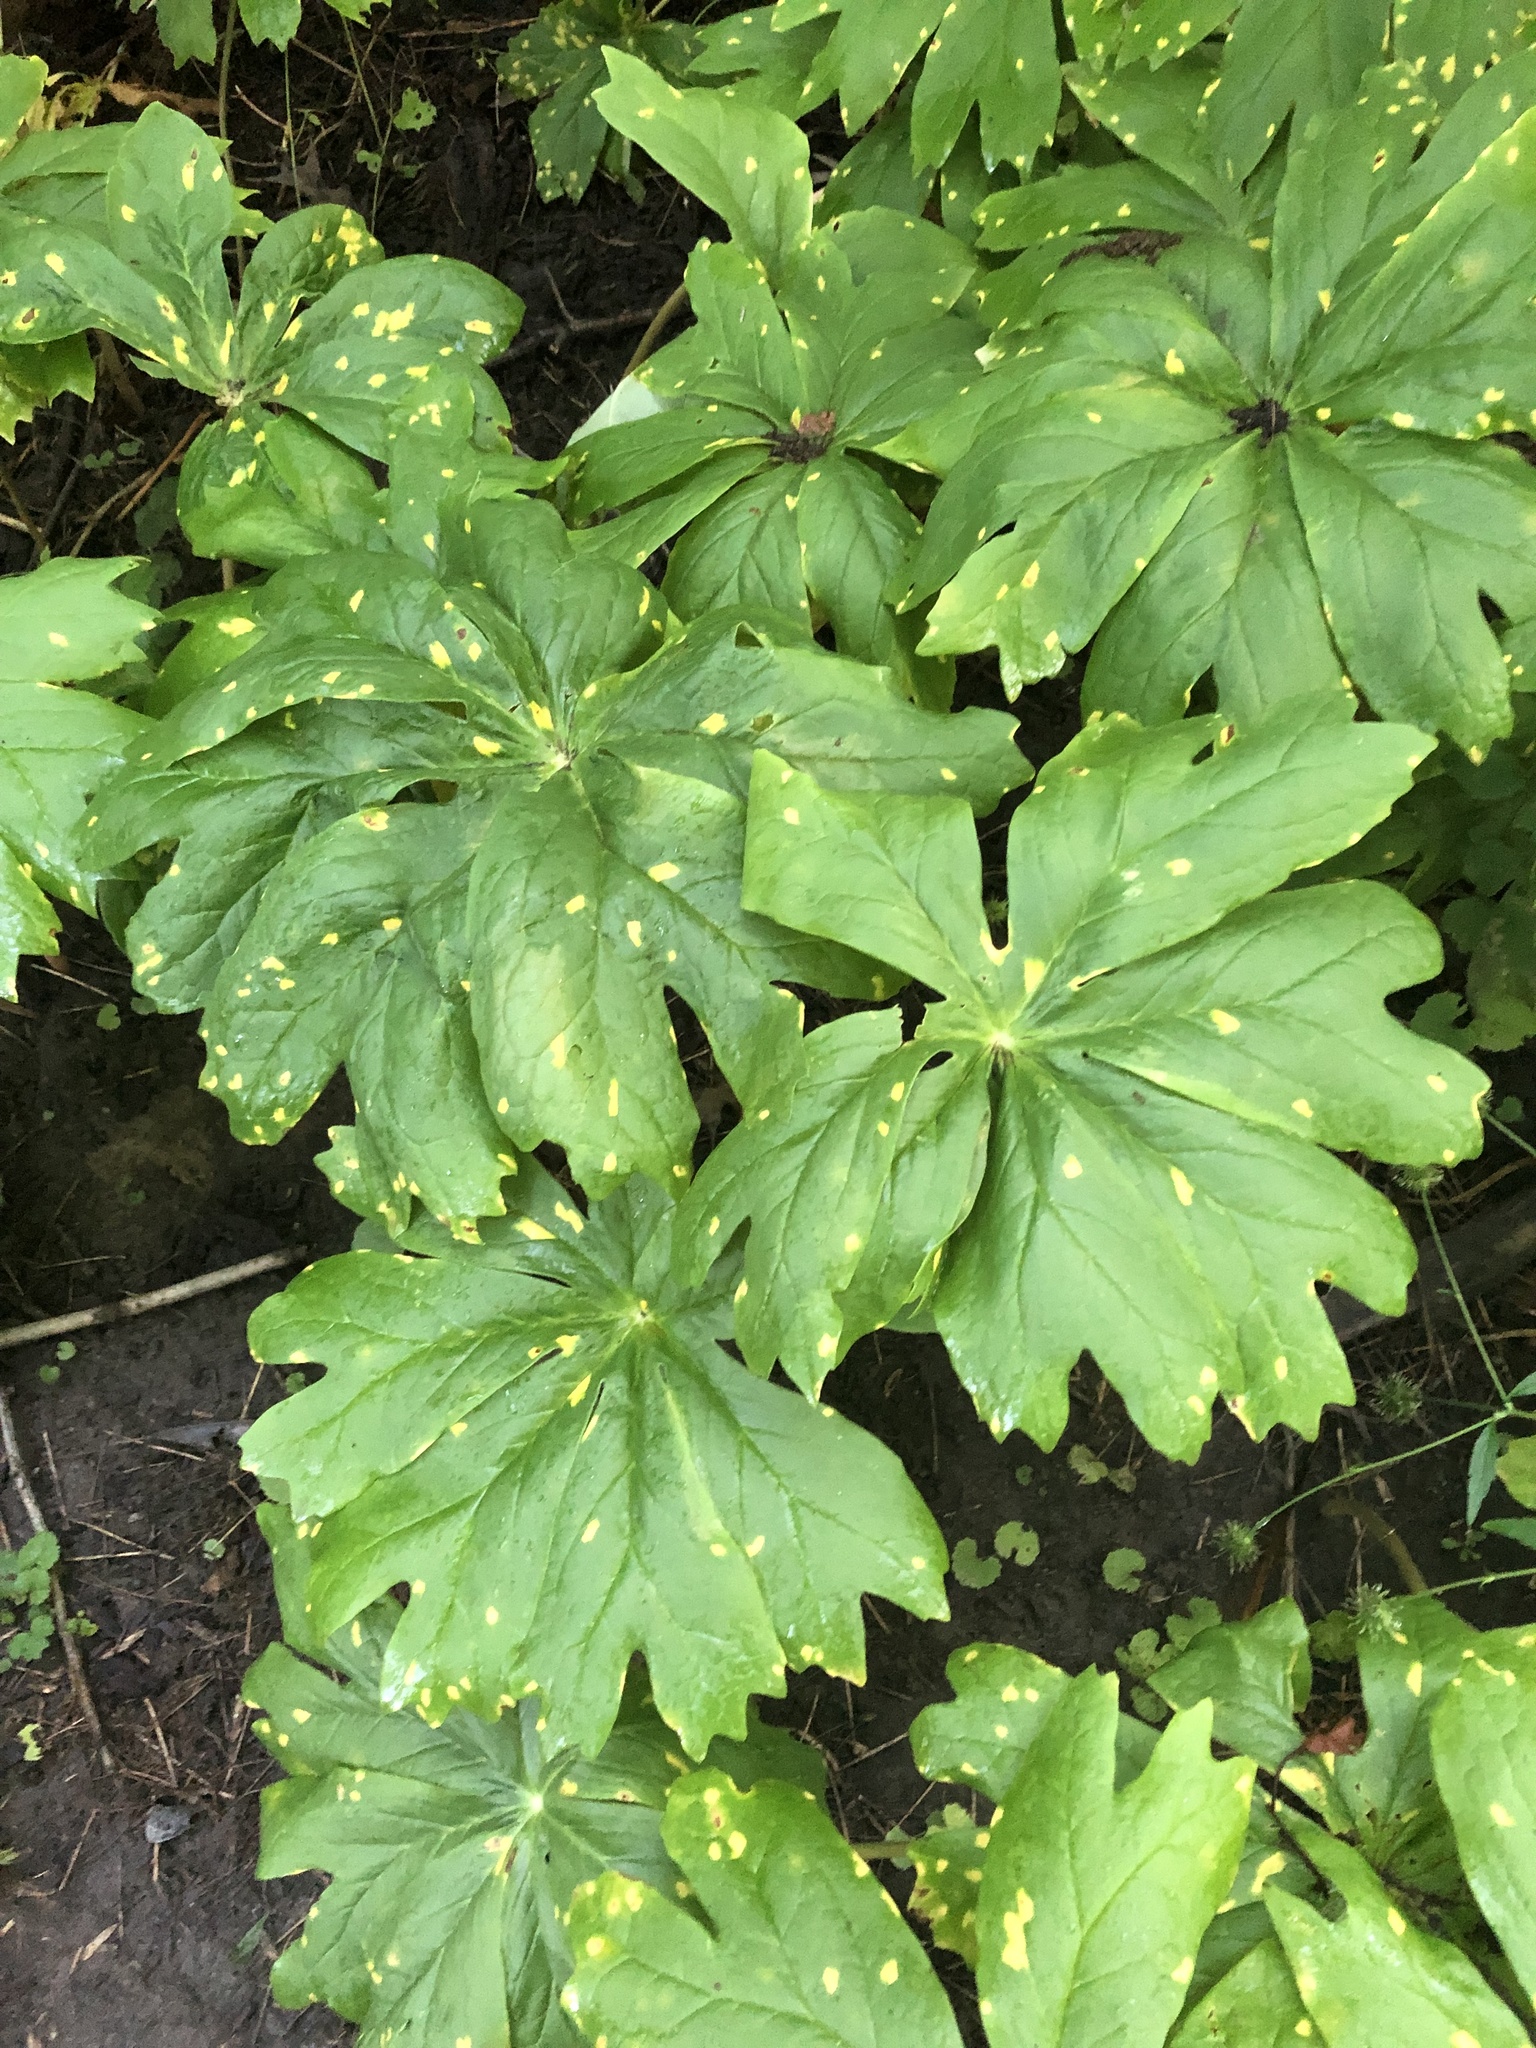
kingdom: Plantae
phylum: Tracheophyta
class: Magnoliopsida
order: Ranunculales
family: Berberidaceae
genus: Podophyllum
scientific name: Podophyllum peltatum
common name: Wild mandrake
